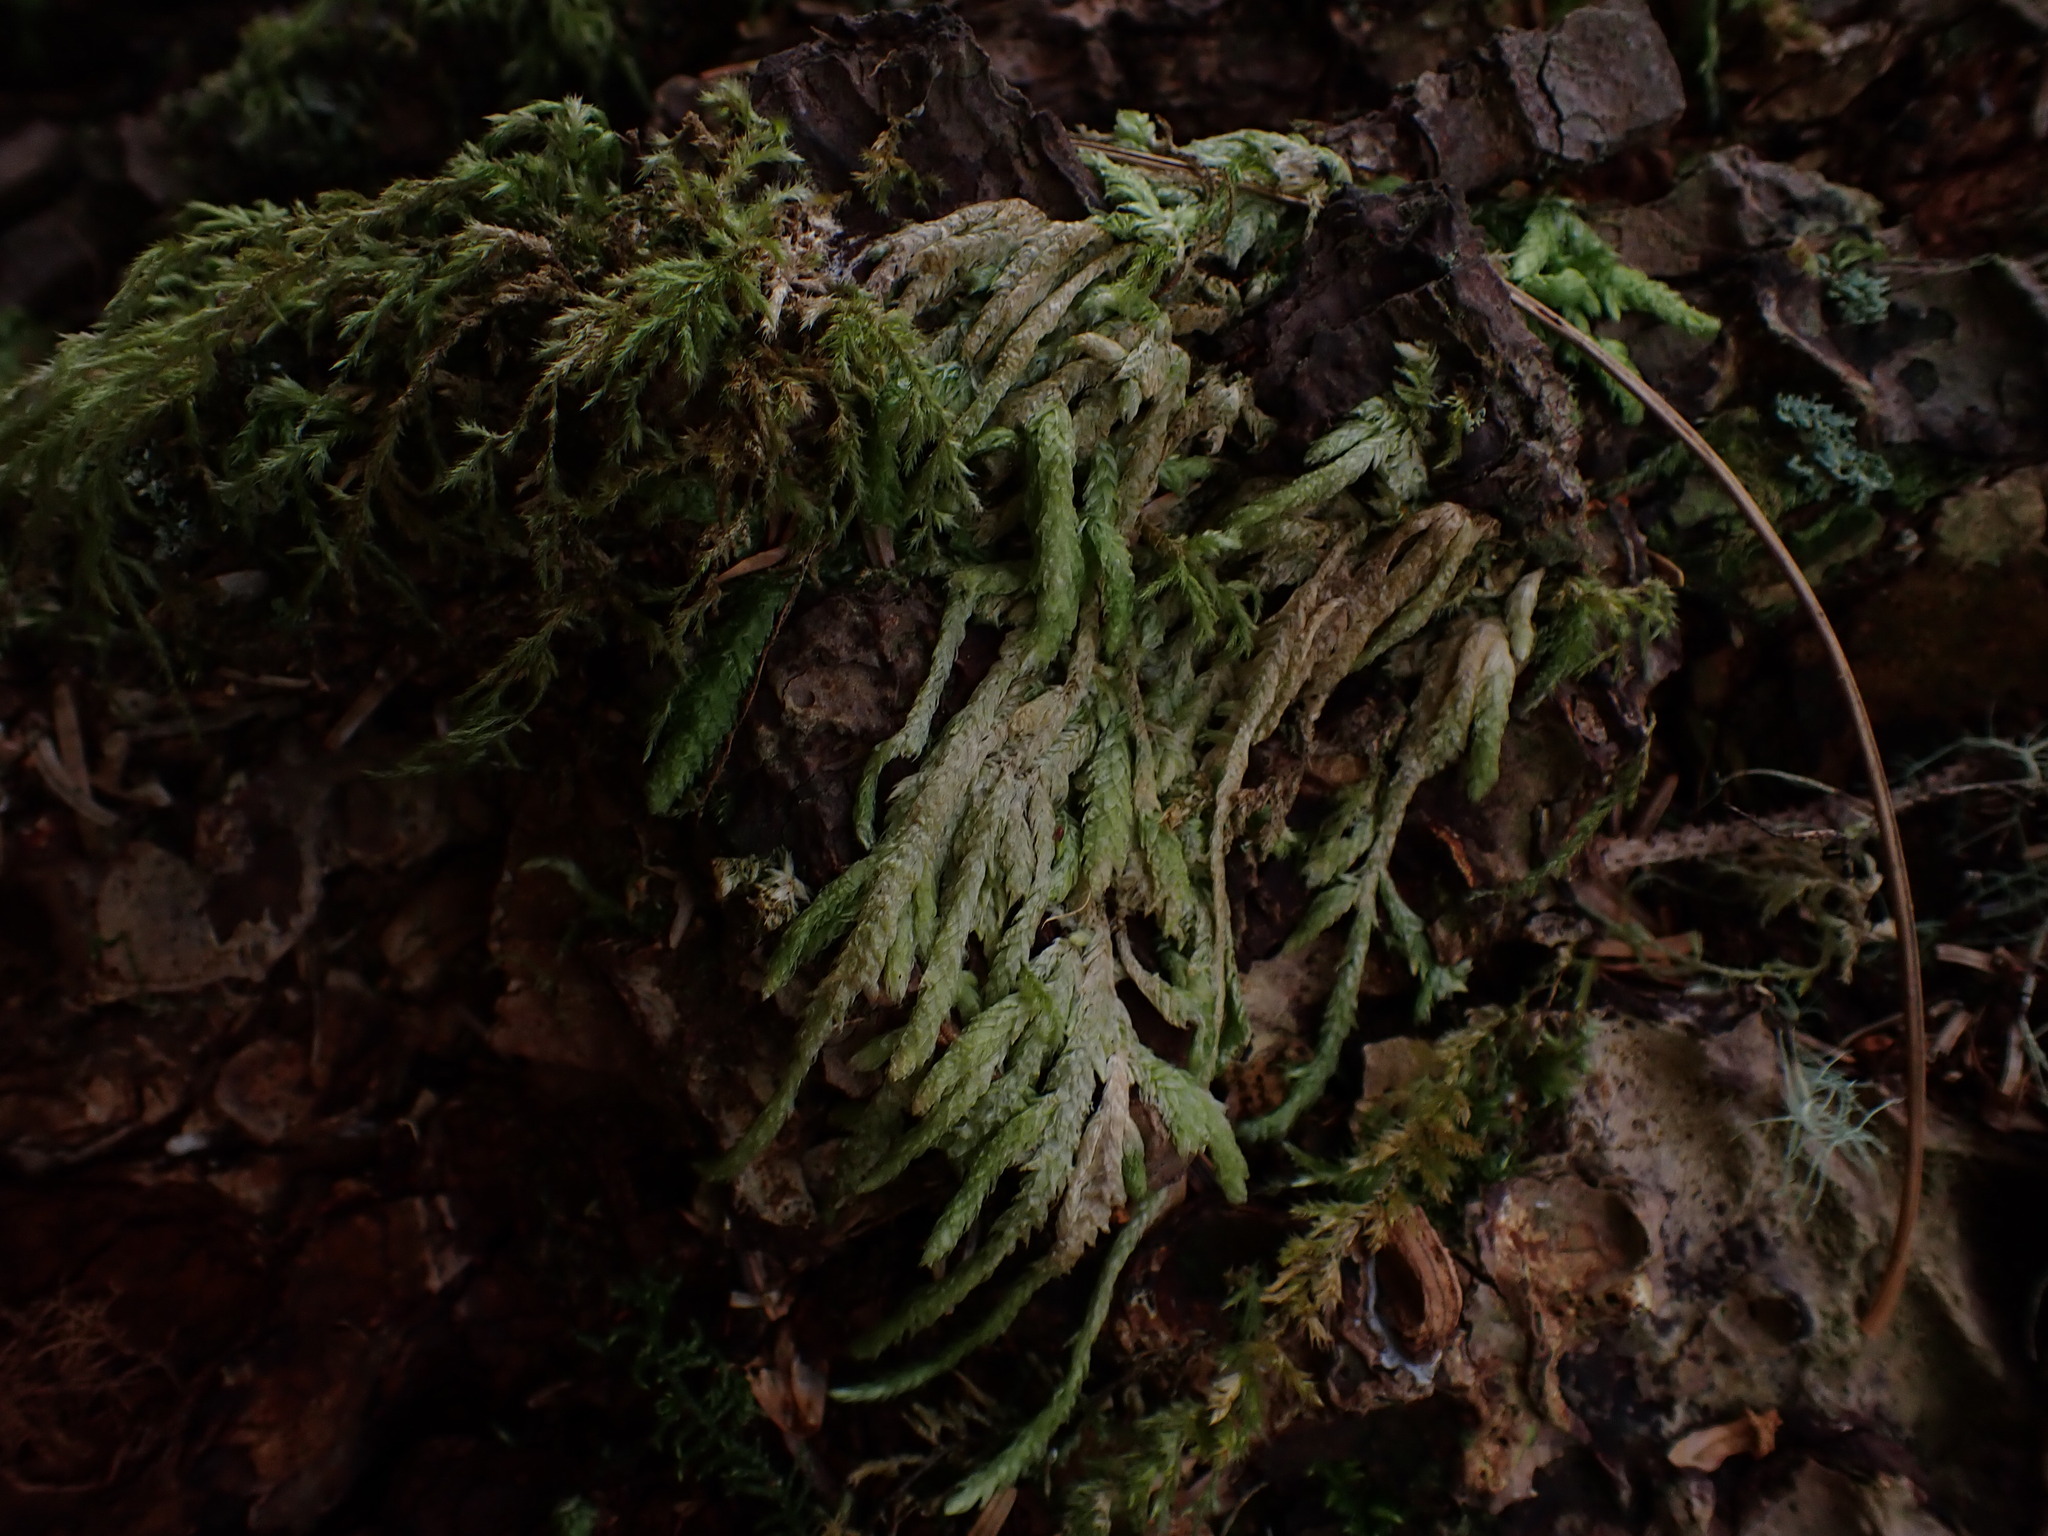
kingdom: Plantae
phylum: Bryophyta
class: Bryopsida
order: Hypnales
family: Plagiotheciaceae
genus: Plagiothecium
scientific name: Plagiothecium undulatum
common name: Waved silk-moss
